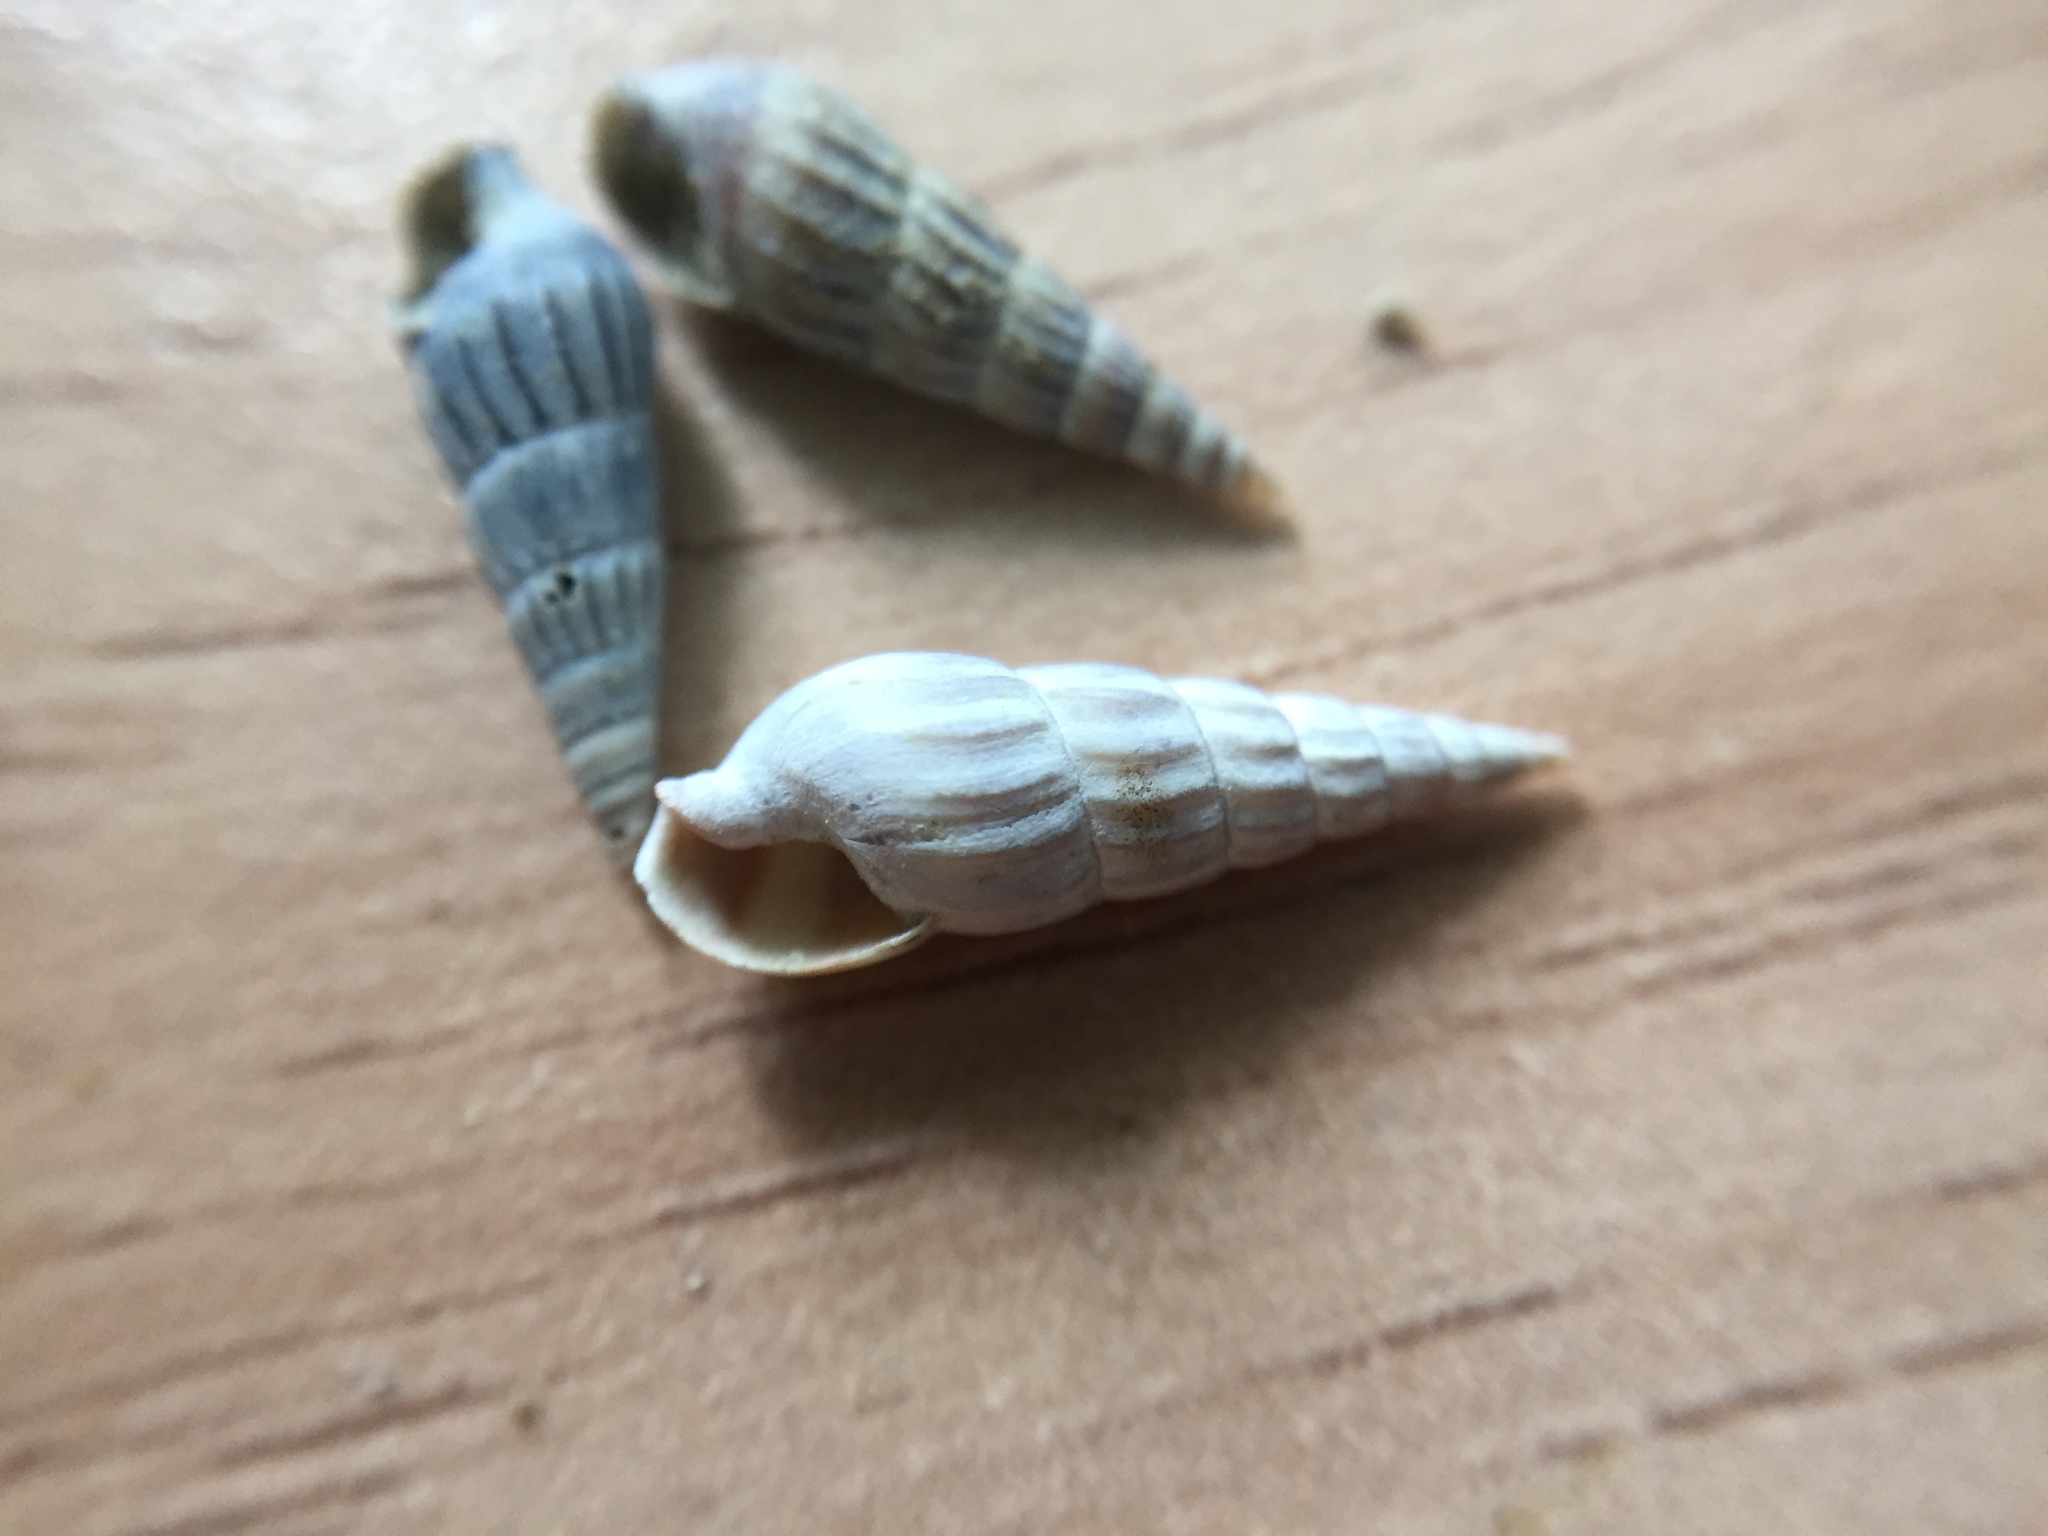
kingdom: Animalia
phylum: Mollusca
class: Gastropoda
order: Neogastropoda
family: Terebridae
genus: Duplicaria
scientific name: Duplicaria tristis
